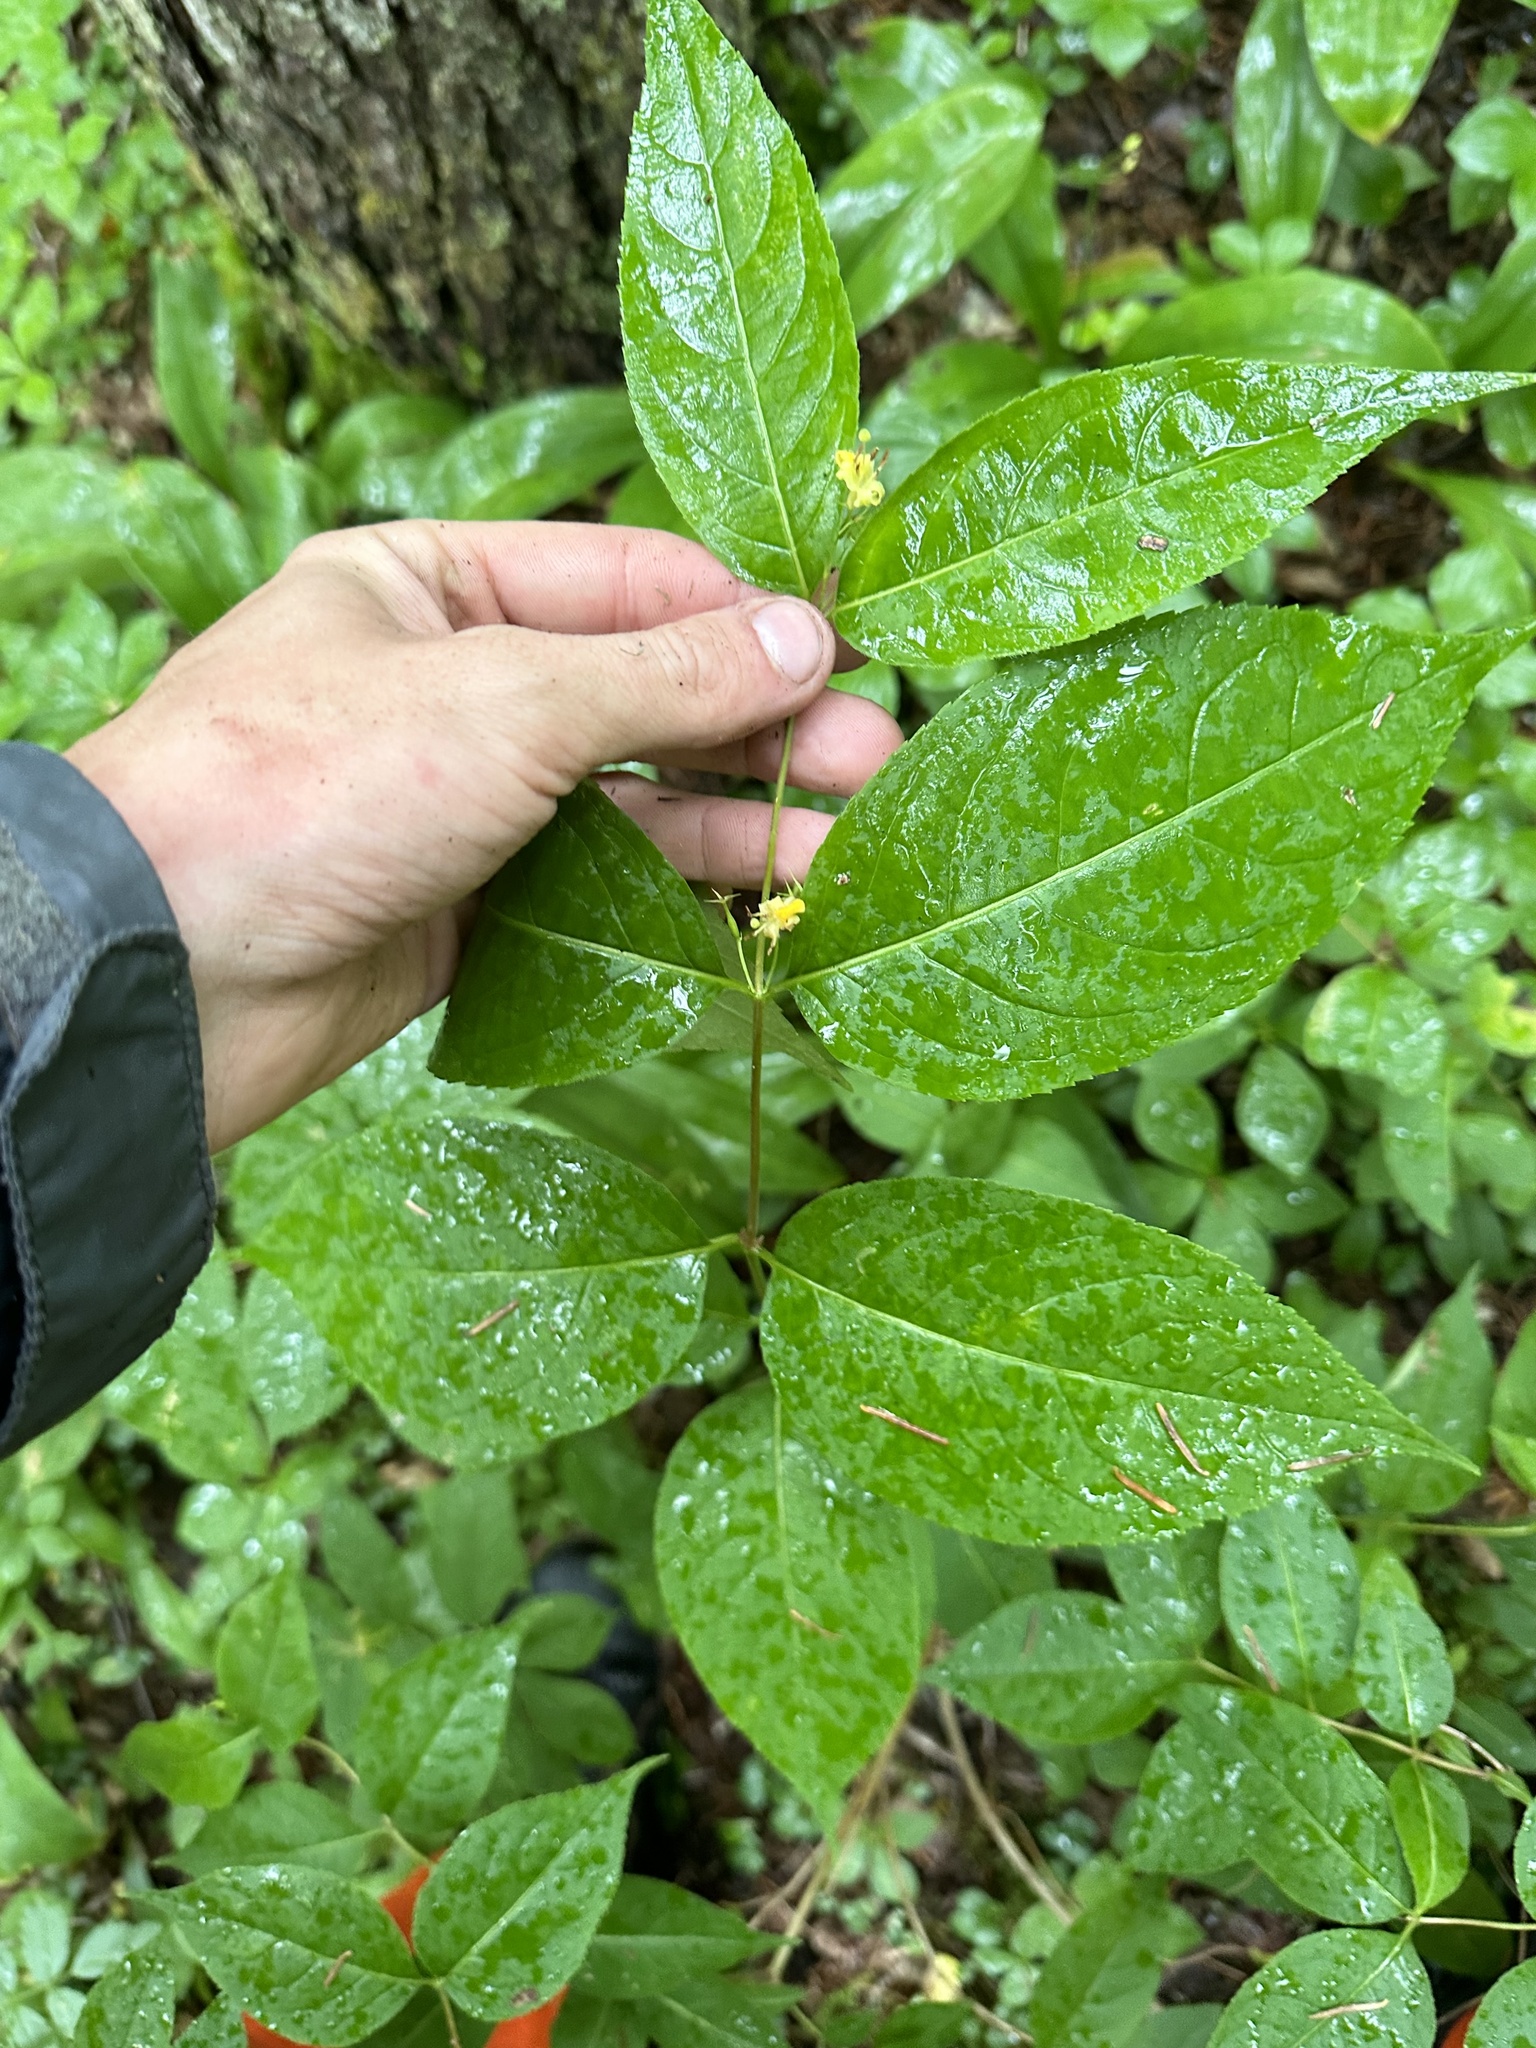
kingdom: Plantae
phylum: Tracheophyta
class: Magnoliopsida
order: Dipsacales
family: Caprifoliaceae
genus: Diervilla
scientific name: Diervilla lonicera
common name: Bush-honeysuckle
